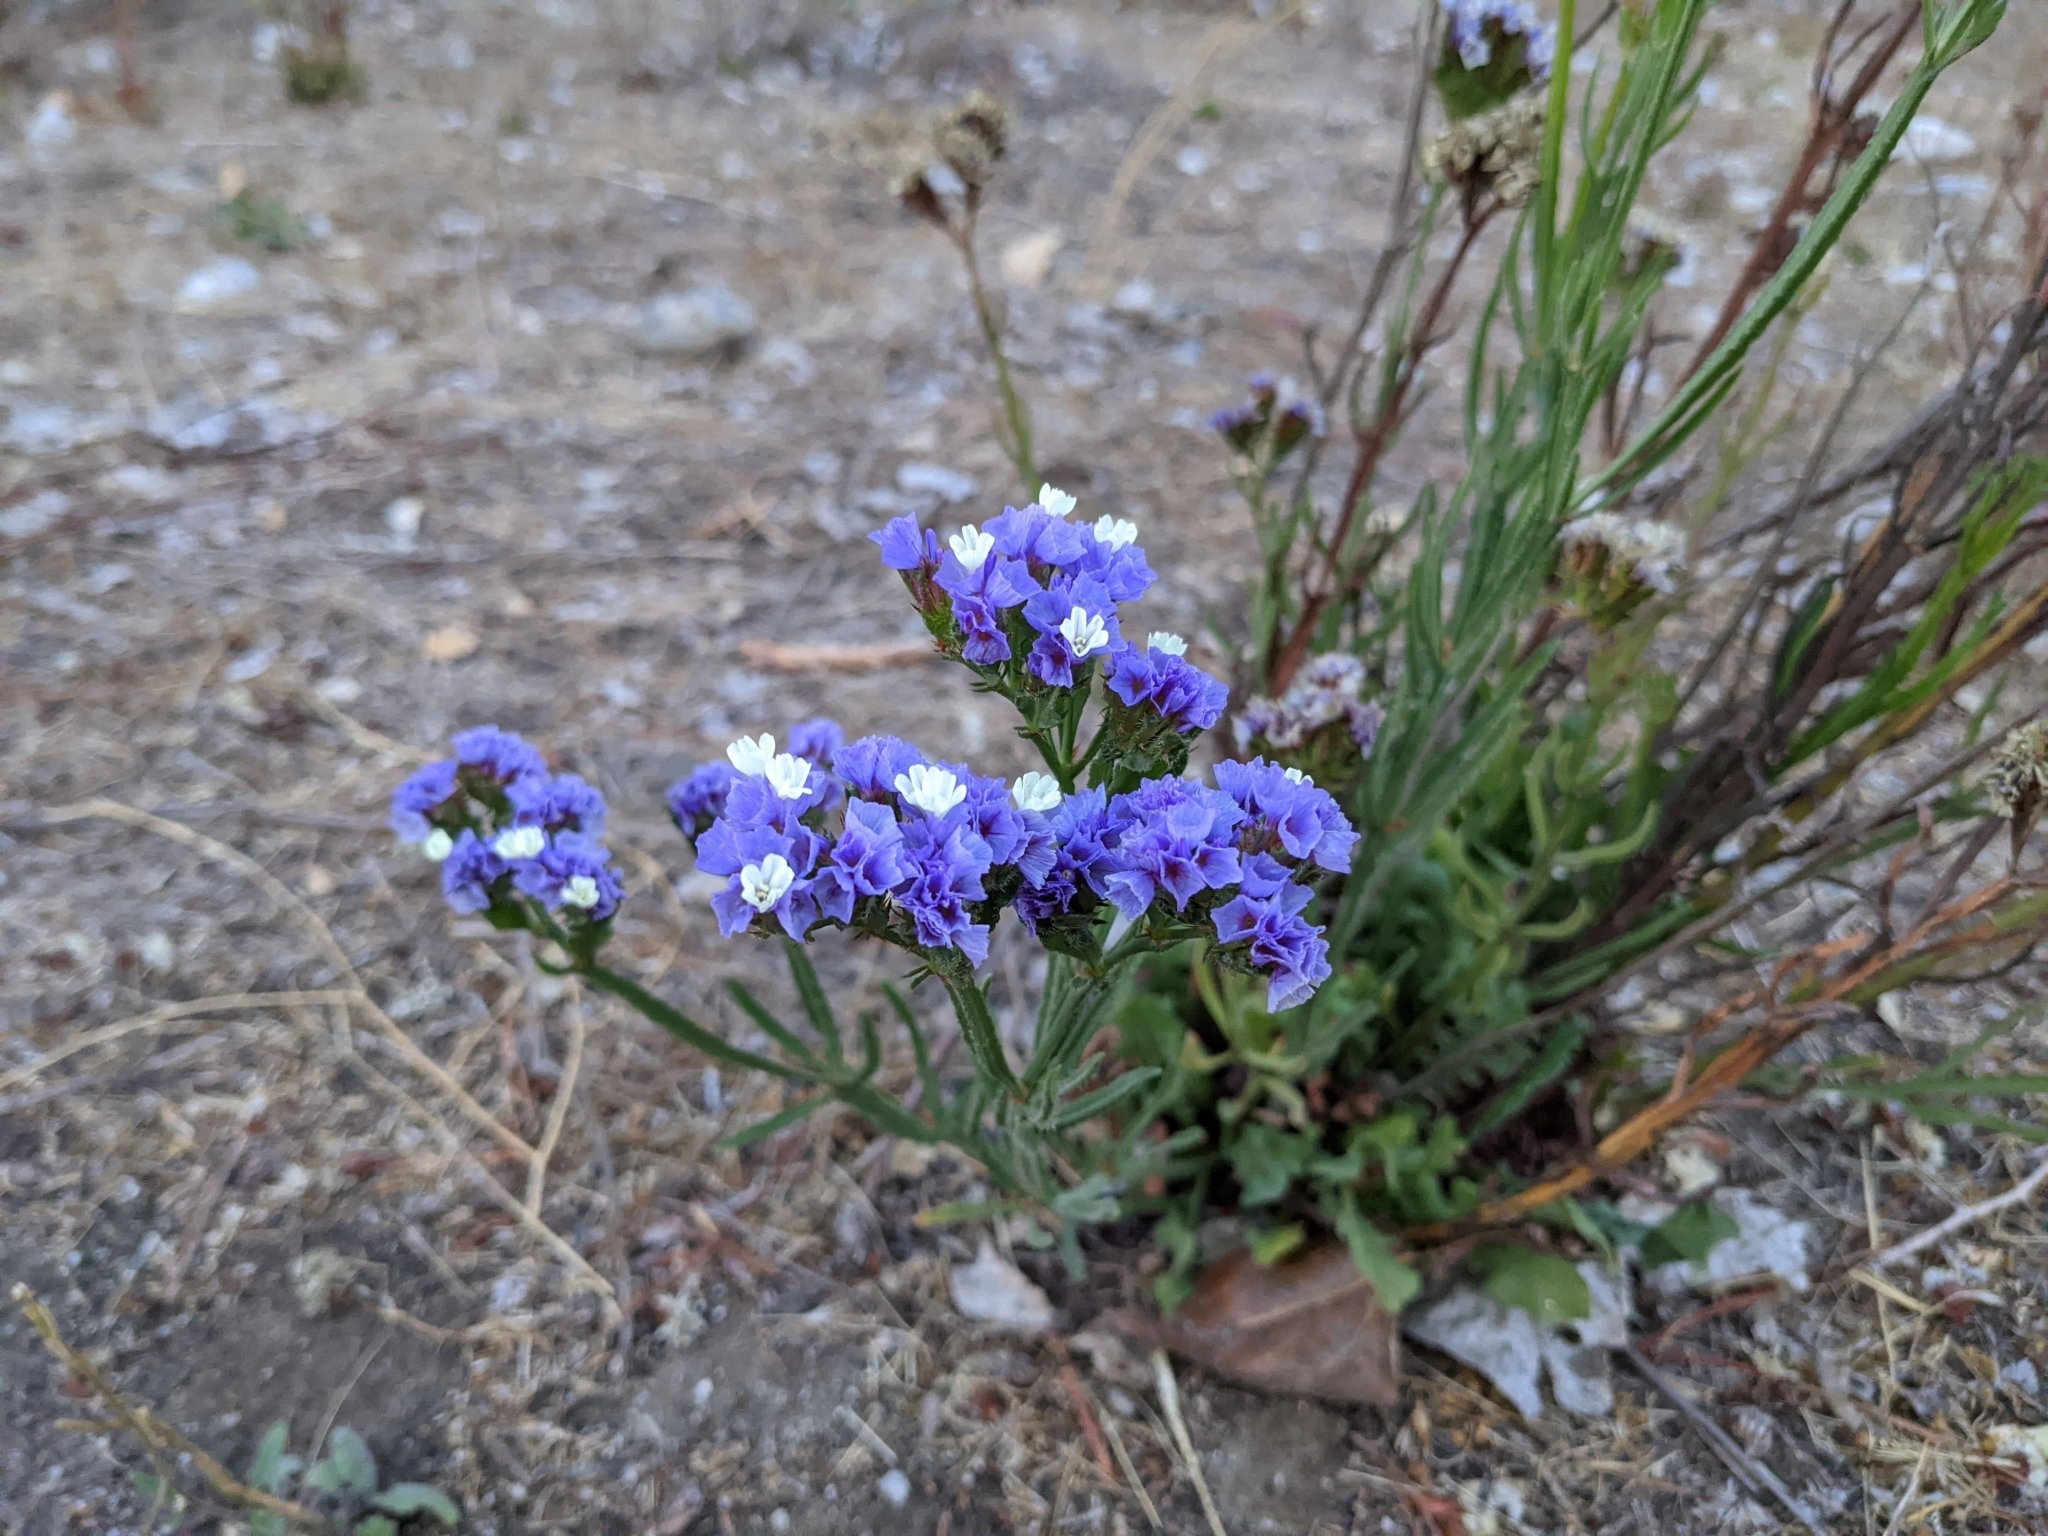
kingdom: Plantae
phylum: Tracheophyta
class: Magnoliopsida
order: Caryophyllales
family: Plumbaginaceae
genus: Limonium
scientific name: Limonium sinuatum
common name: Statice
